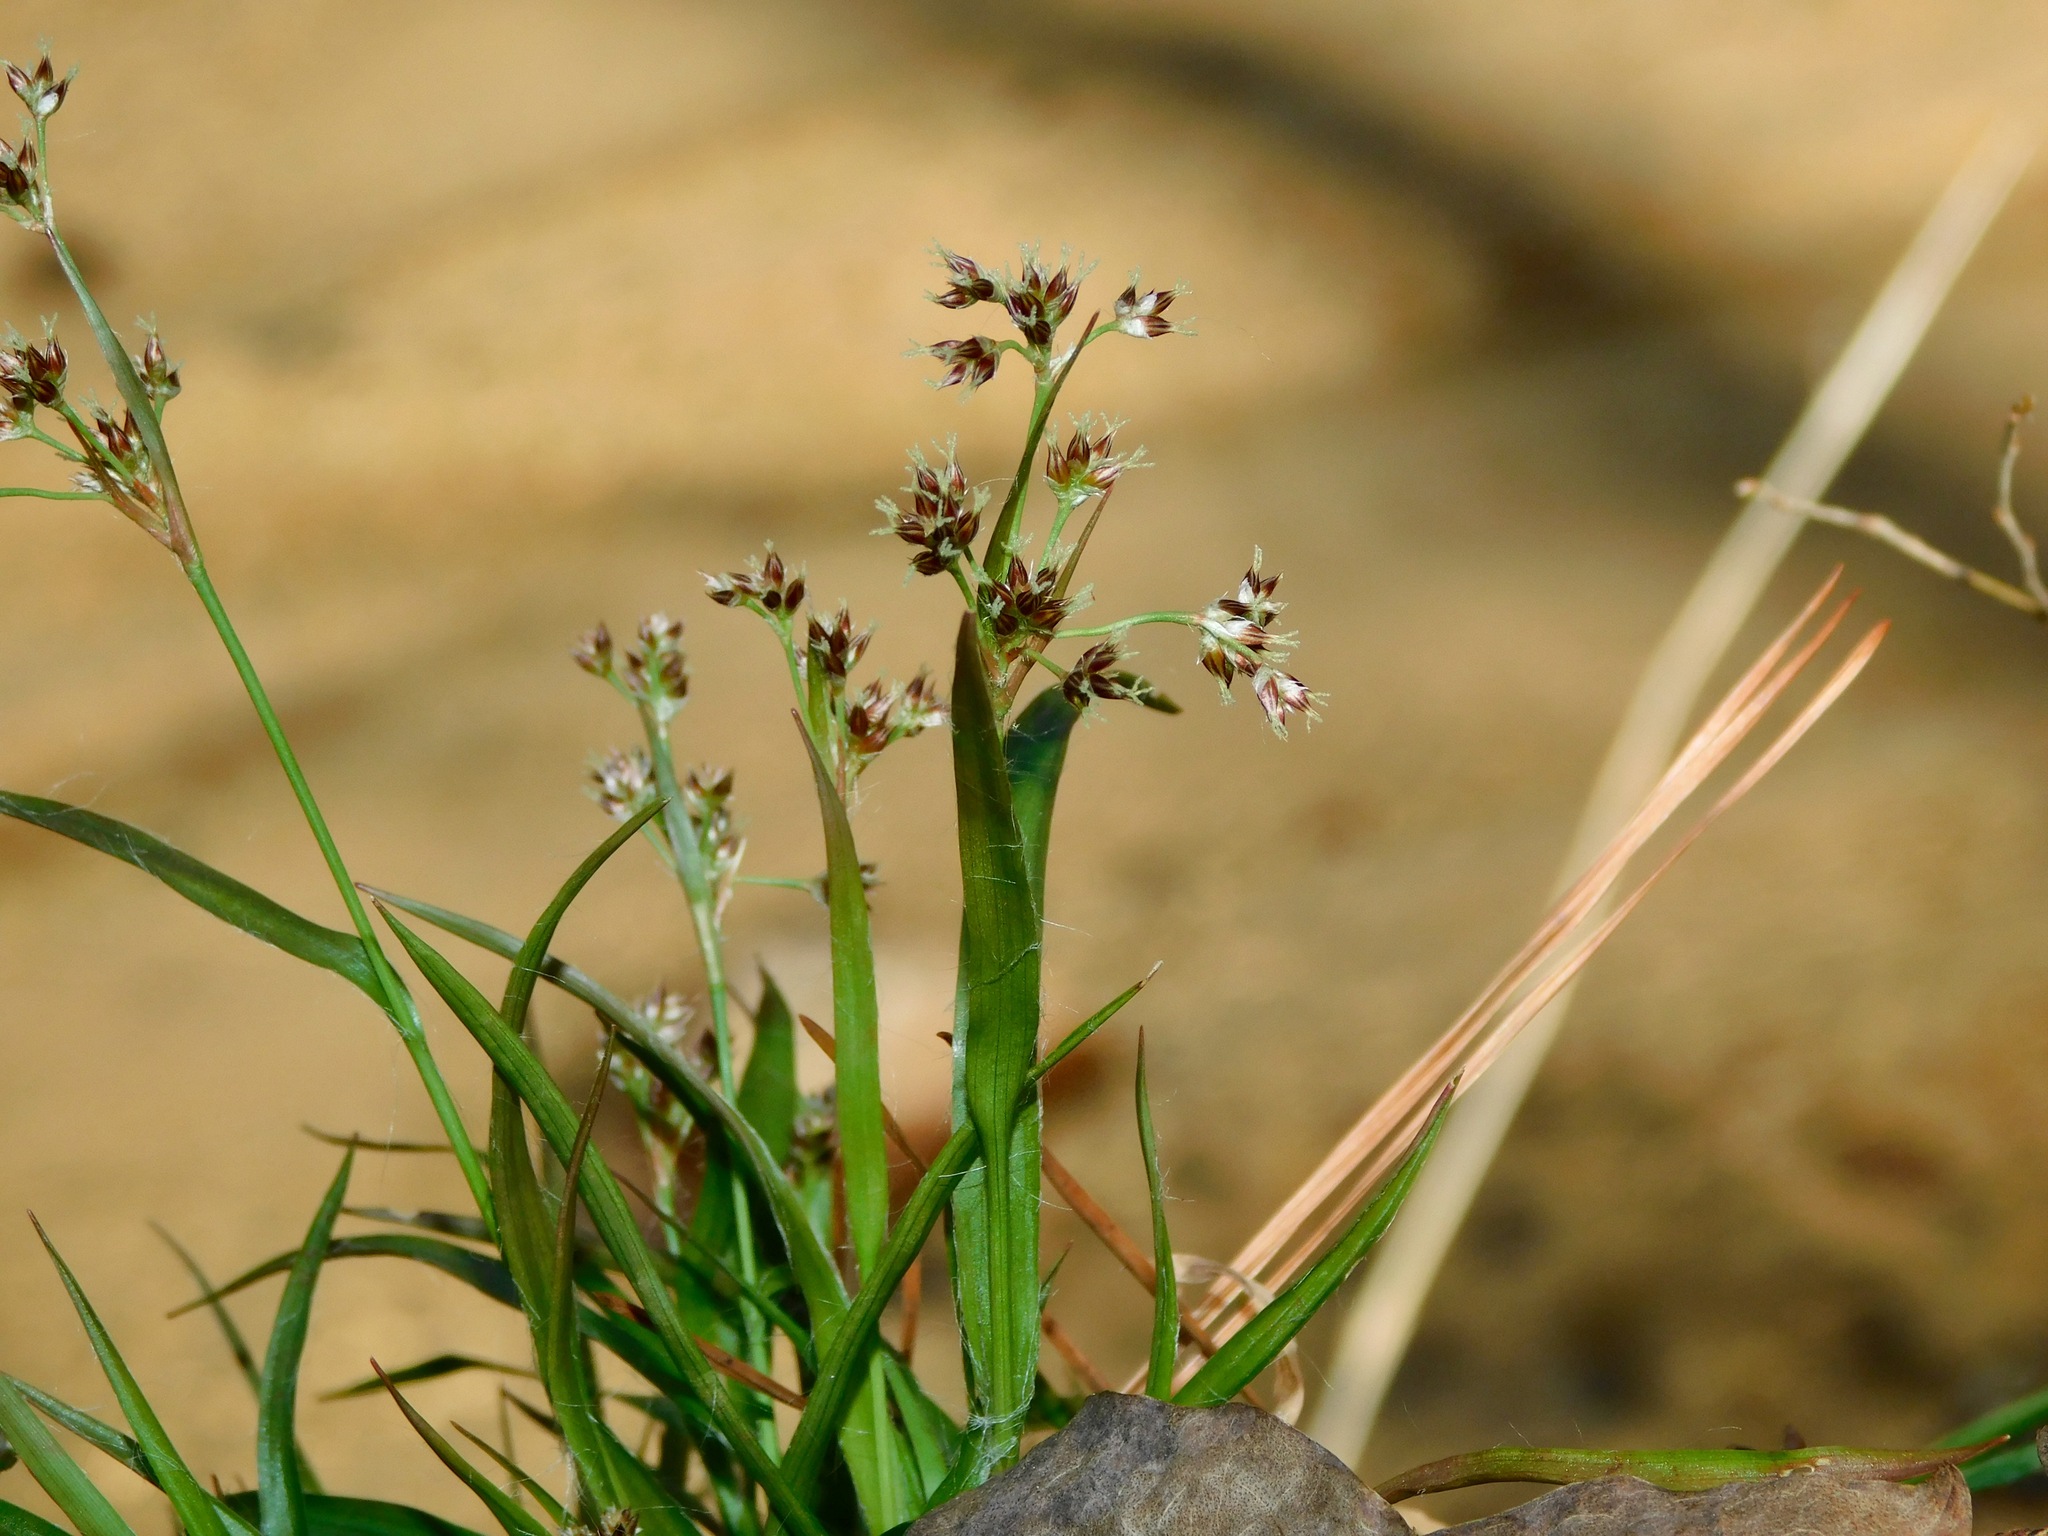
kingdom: Plantae
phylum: Tracheophyta
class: Liliopsida
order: Poales
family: Juncaceae
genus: Luzula
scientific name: Luzula echinata
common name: Hedgehog woodrush
